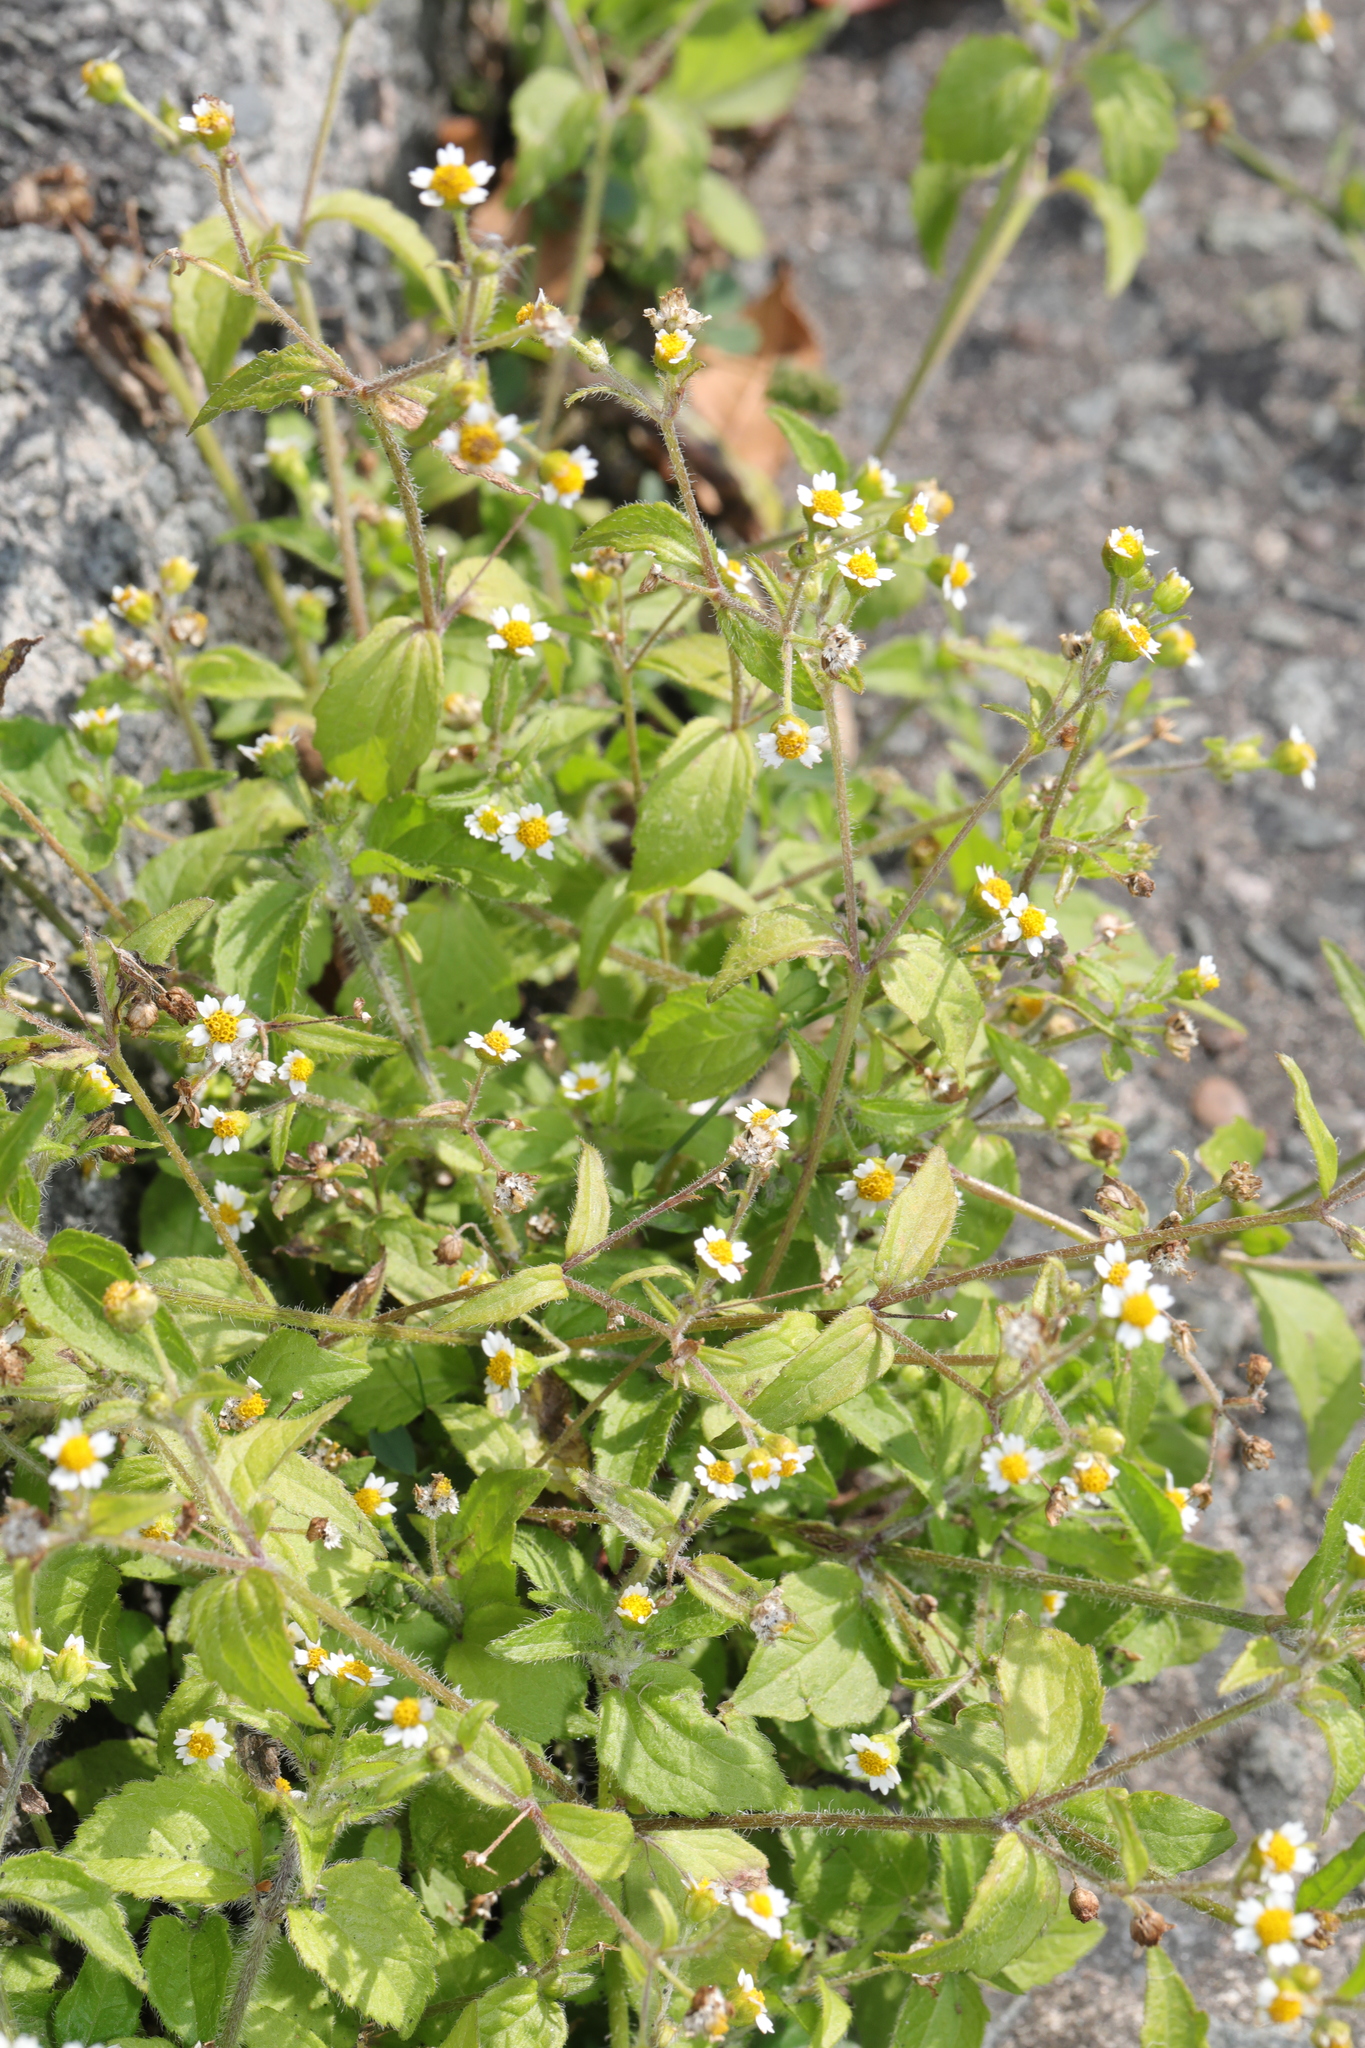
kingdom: Plantae
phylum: Tracheophyta
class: Magnoliopsida
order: Asterales
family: Asteraceae
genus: Galinsoga
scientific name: Galinsoga quadriradiata
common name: Shaggy soldier
